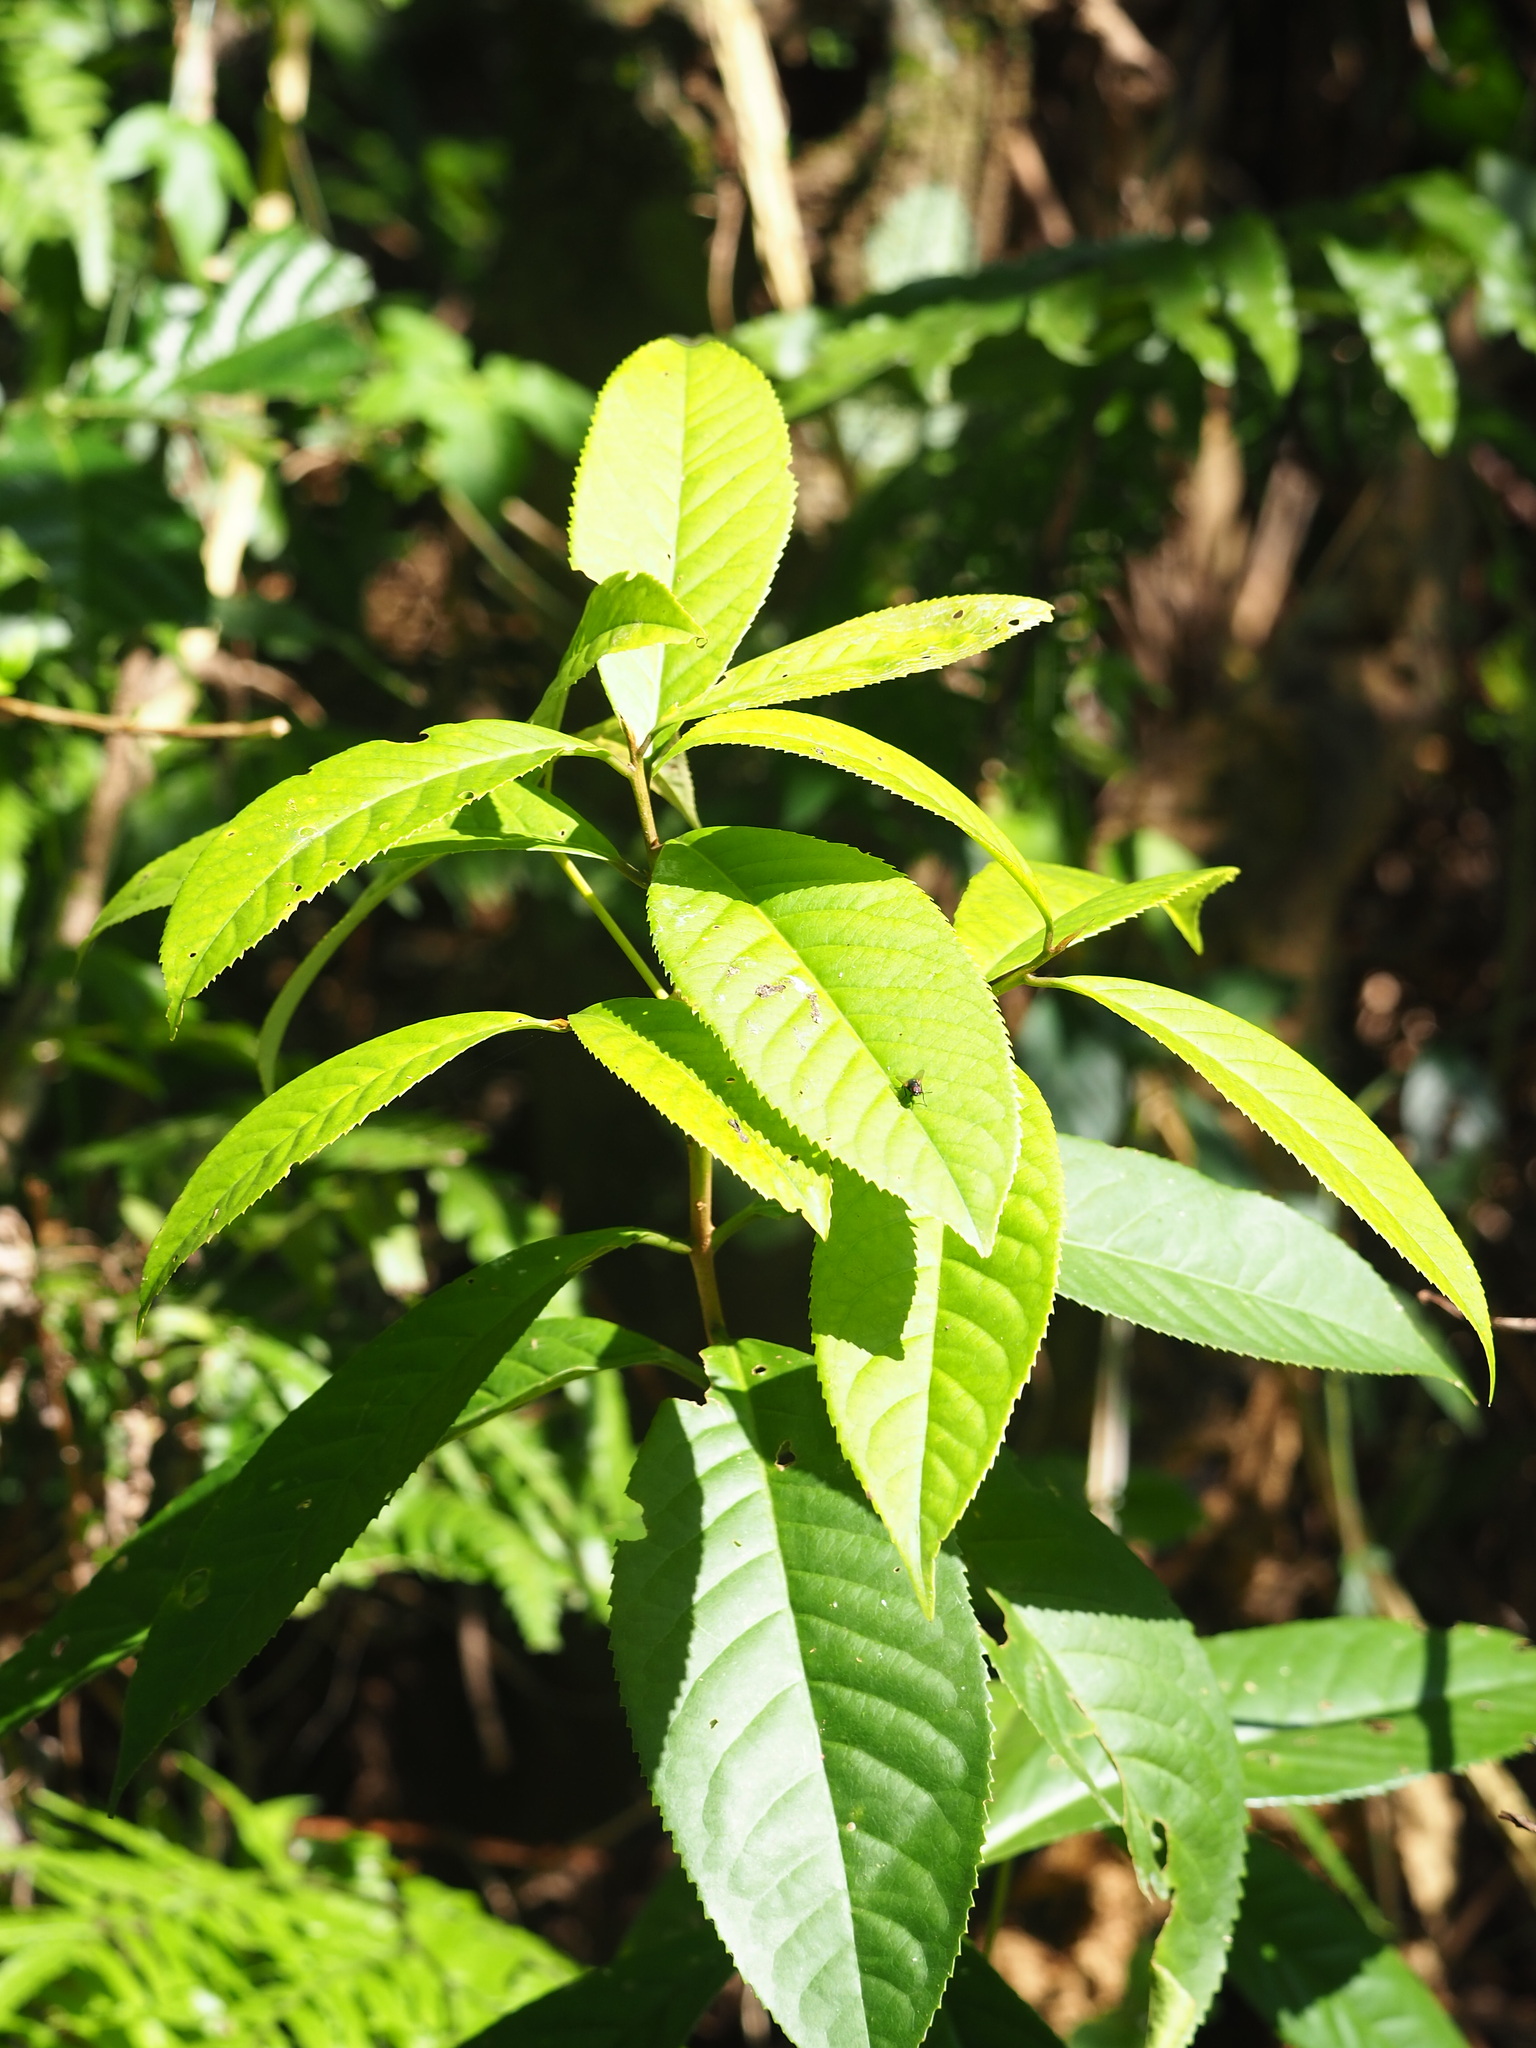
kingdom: Plantae
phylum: Tracheophyta
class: Magnoliopsida
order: Ericales
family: Symplocaceae
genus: Symplocos
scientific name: Symplocos acuminata
